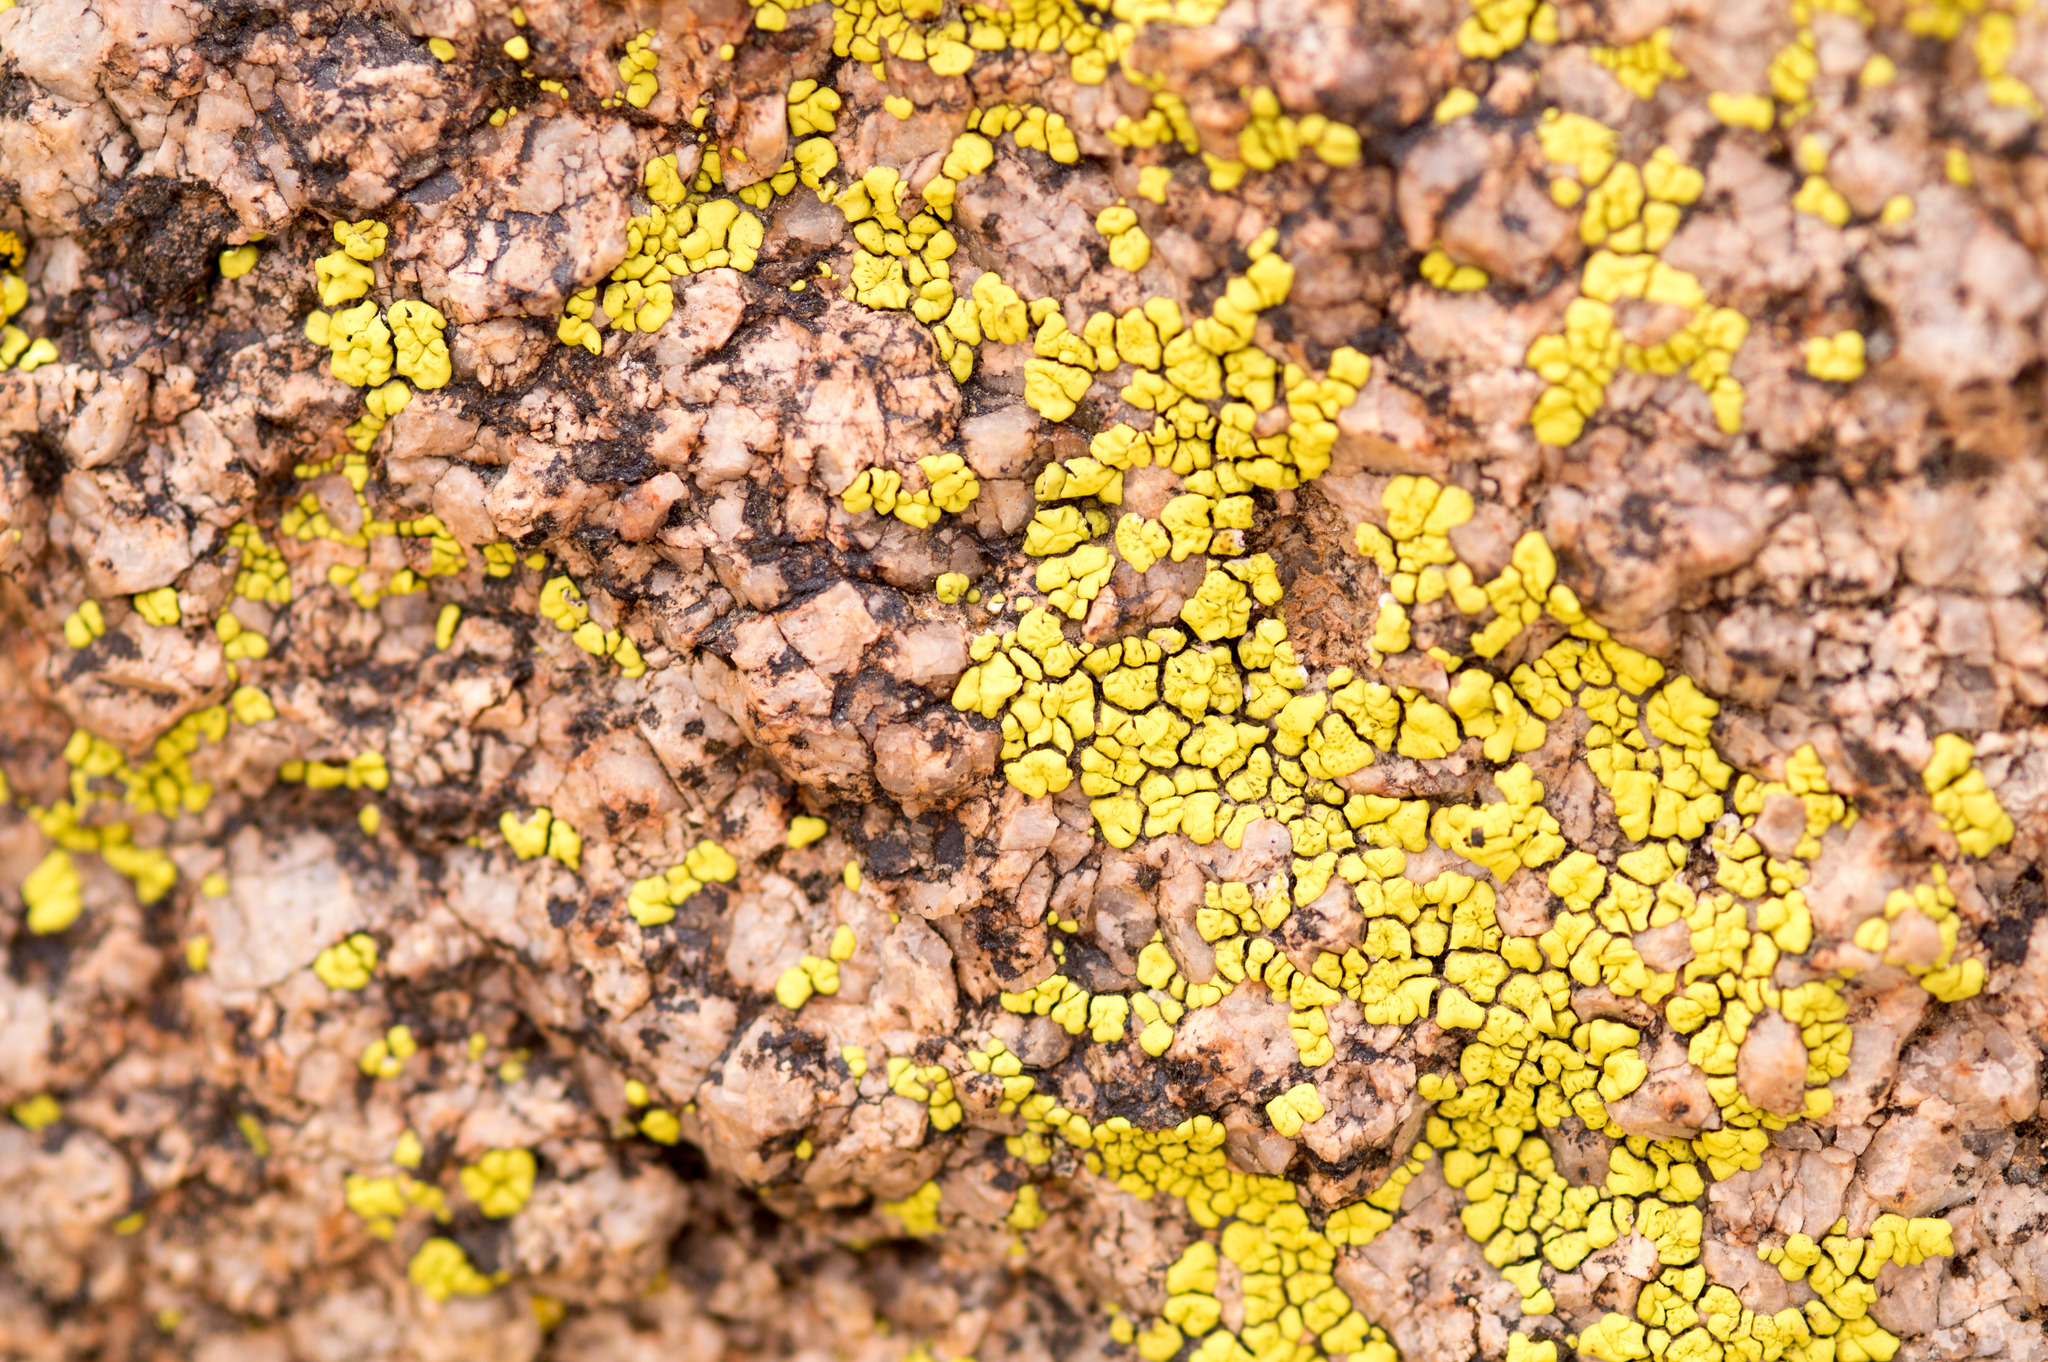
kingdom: Fungi
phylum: Ascomycota
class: Lecanoromycetes
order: Acarosporales
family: Acarosporaceae
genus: Acarospora
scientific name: Acarospora socialis
